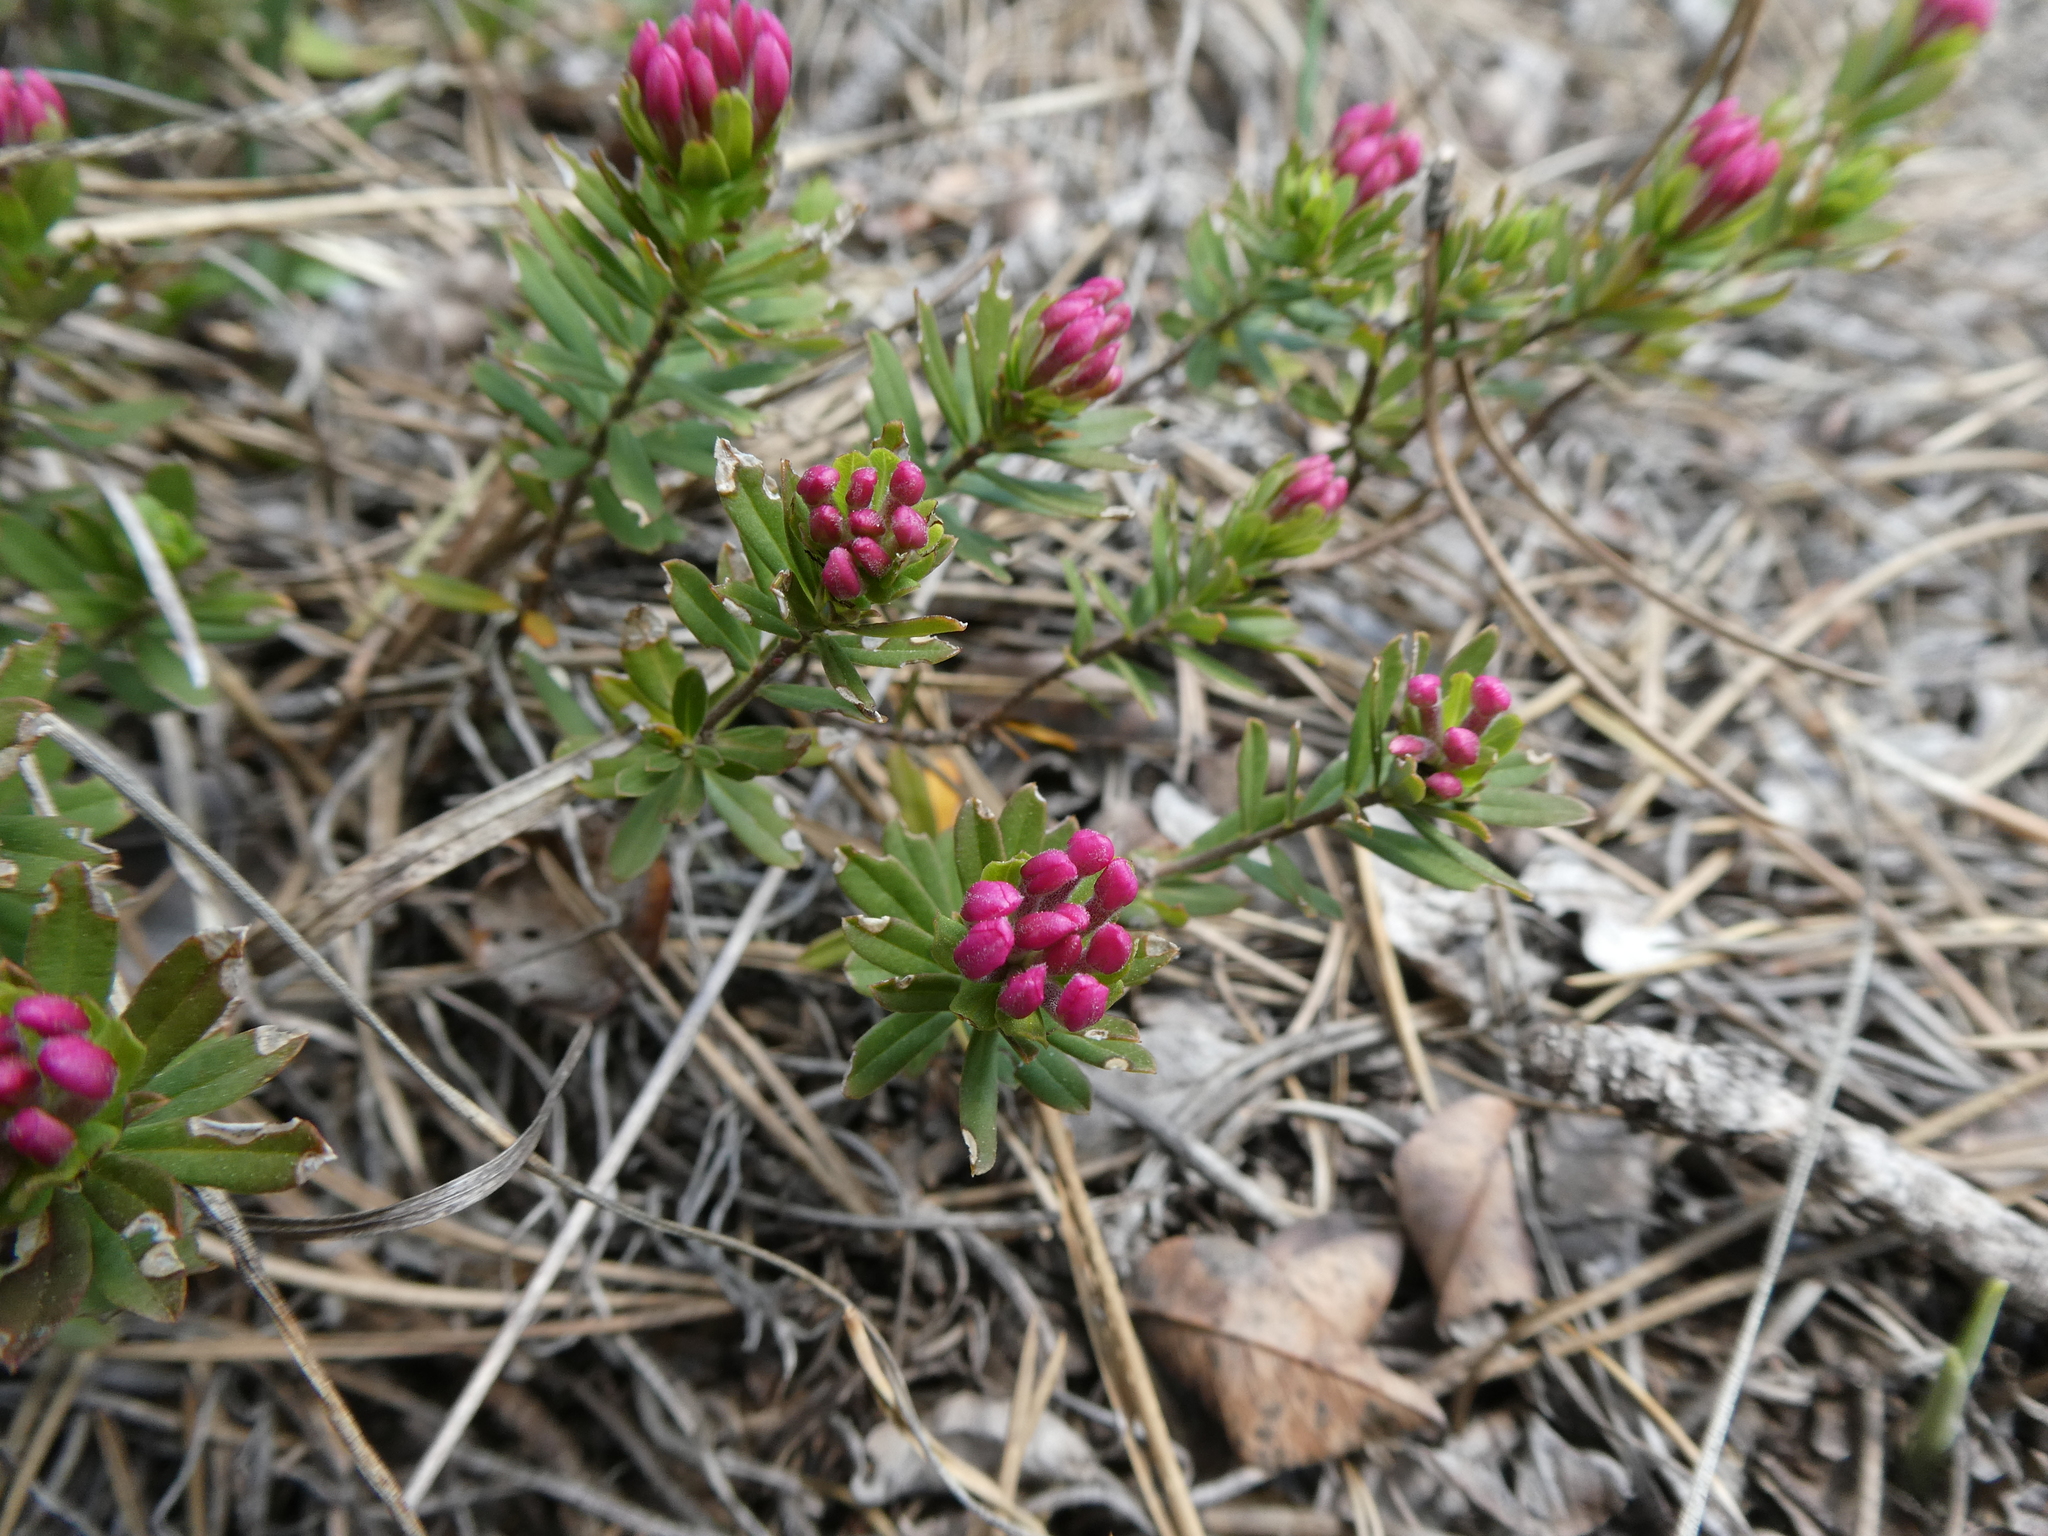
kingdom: Plantae
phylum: Tracheophyta
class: Magnoliopsida
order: Malvales
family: Thymelaeaceae
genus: Daphne
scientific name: Daphne cneorum
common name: Garland-flower
